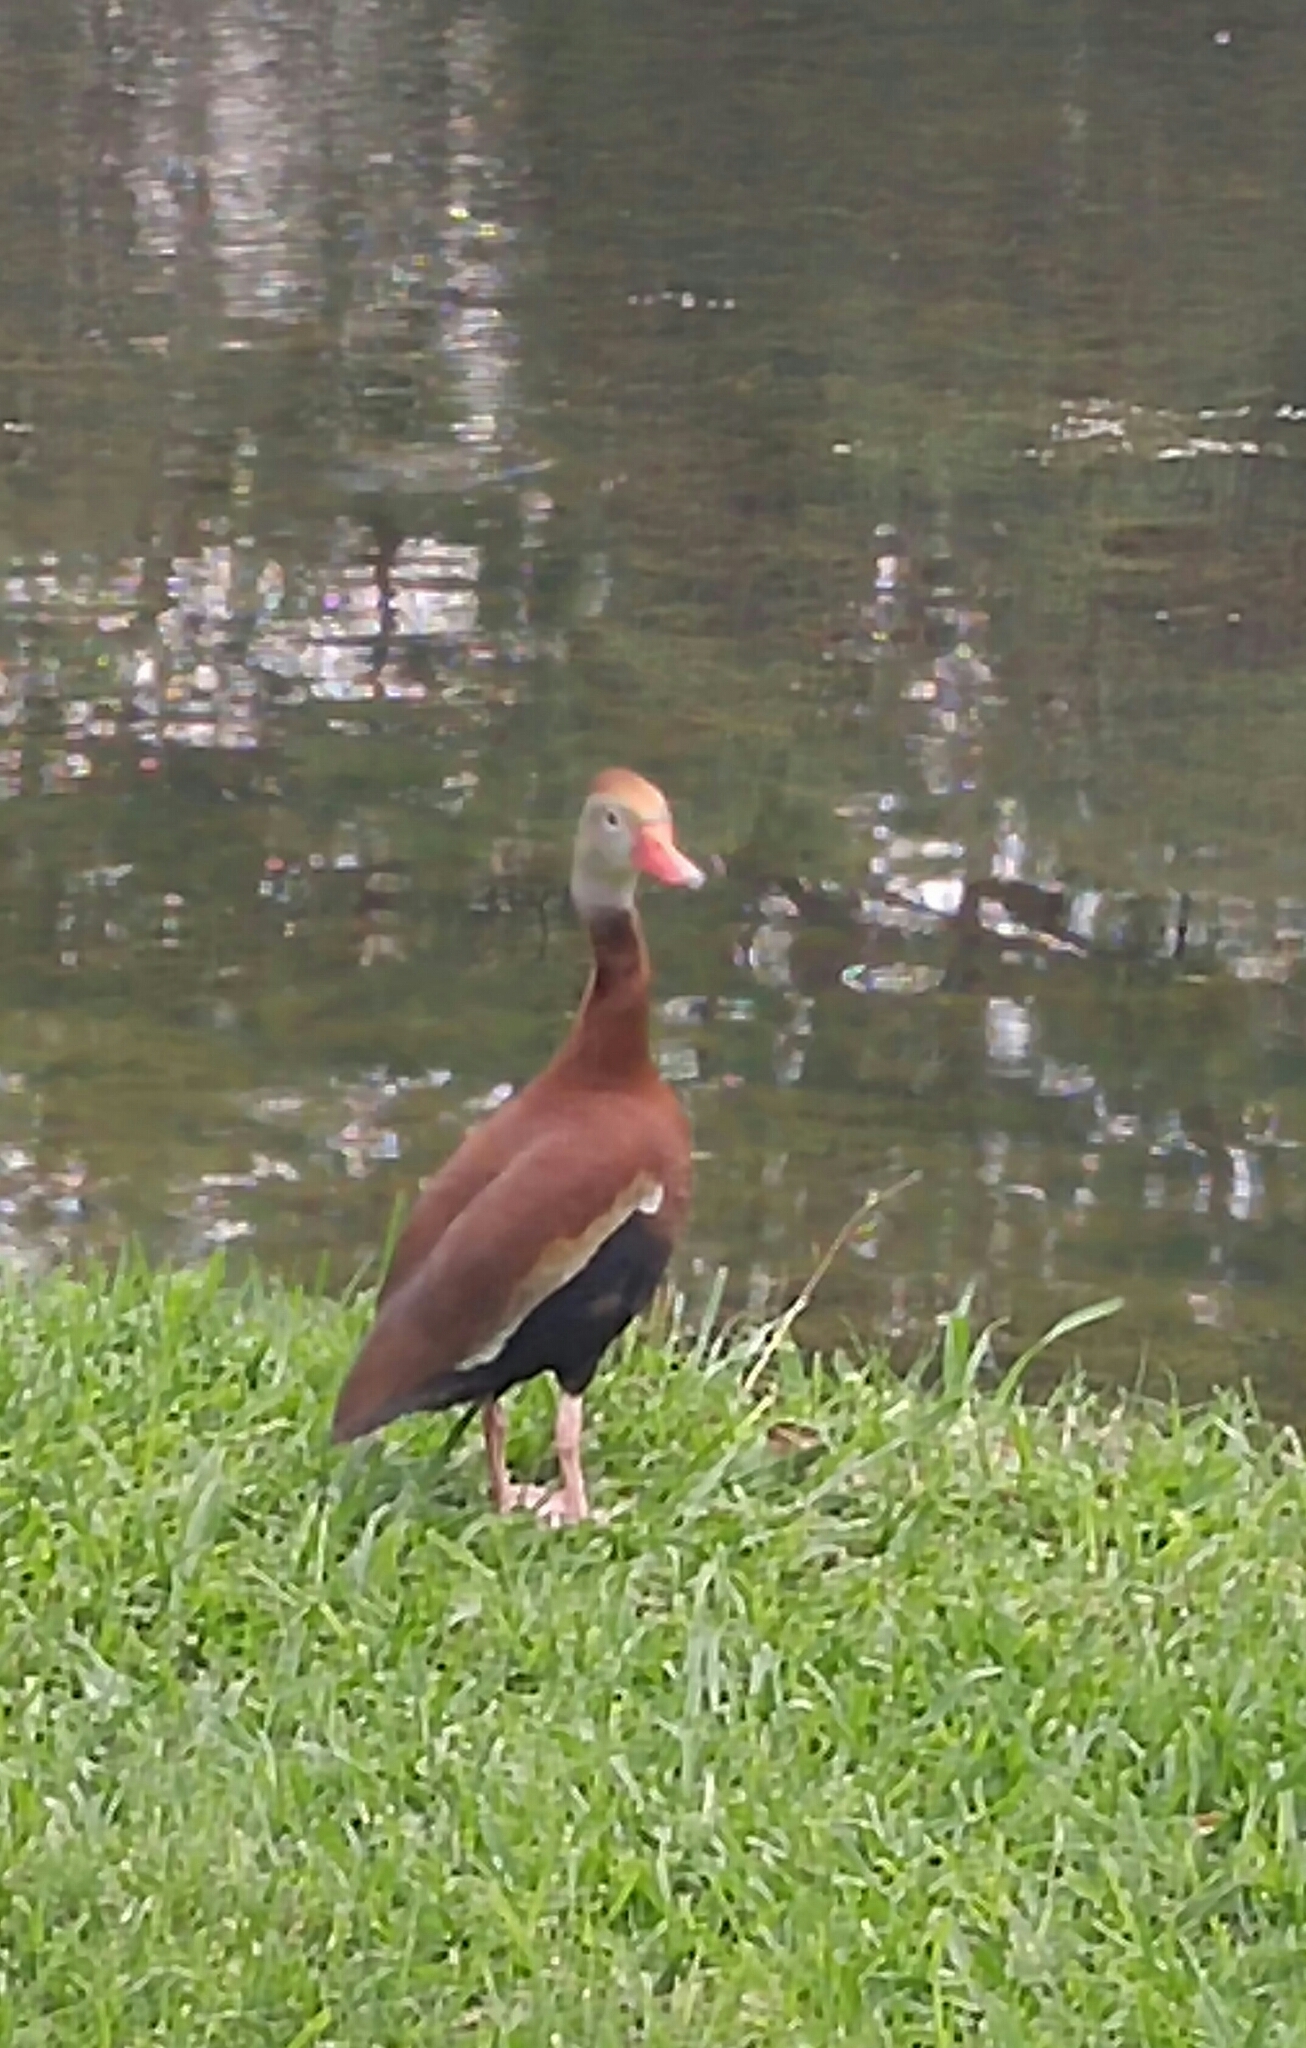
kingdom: Animalia
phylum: Chordata
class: Aves
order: Anseriformes
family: Anatidae
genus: Dendrocygna
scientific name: Dendrocygna autumnalis
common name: Black-bellied whistling duck
